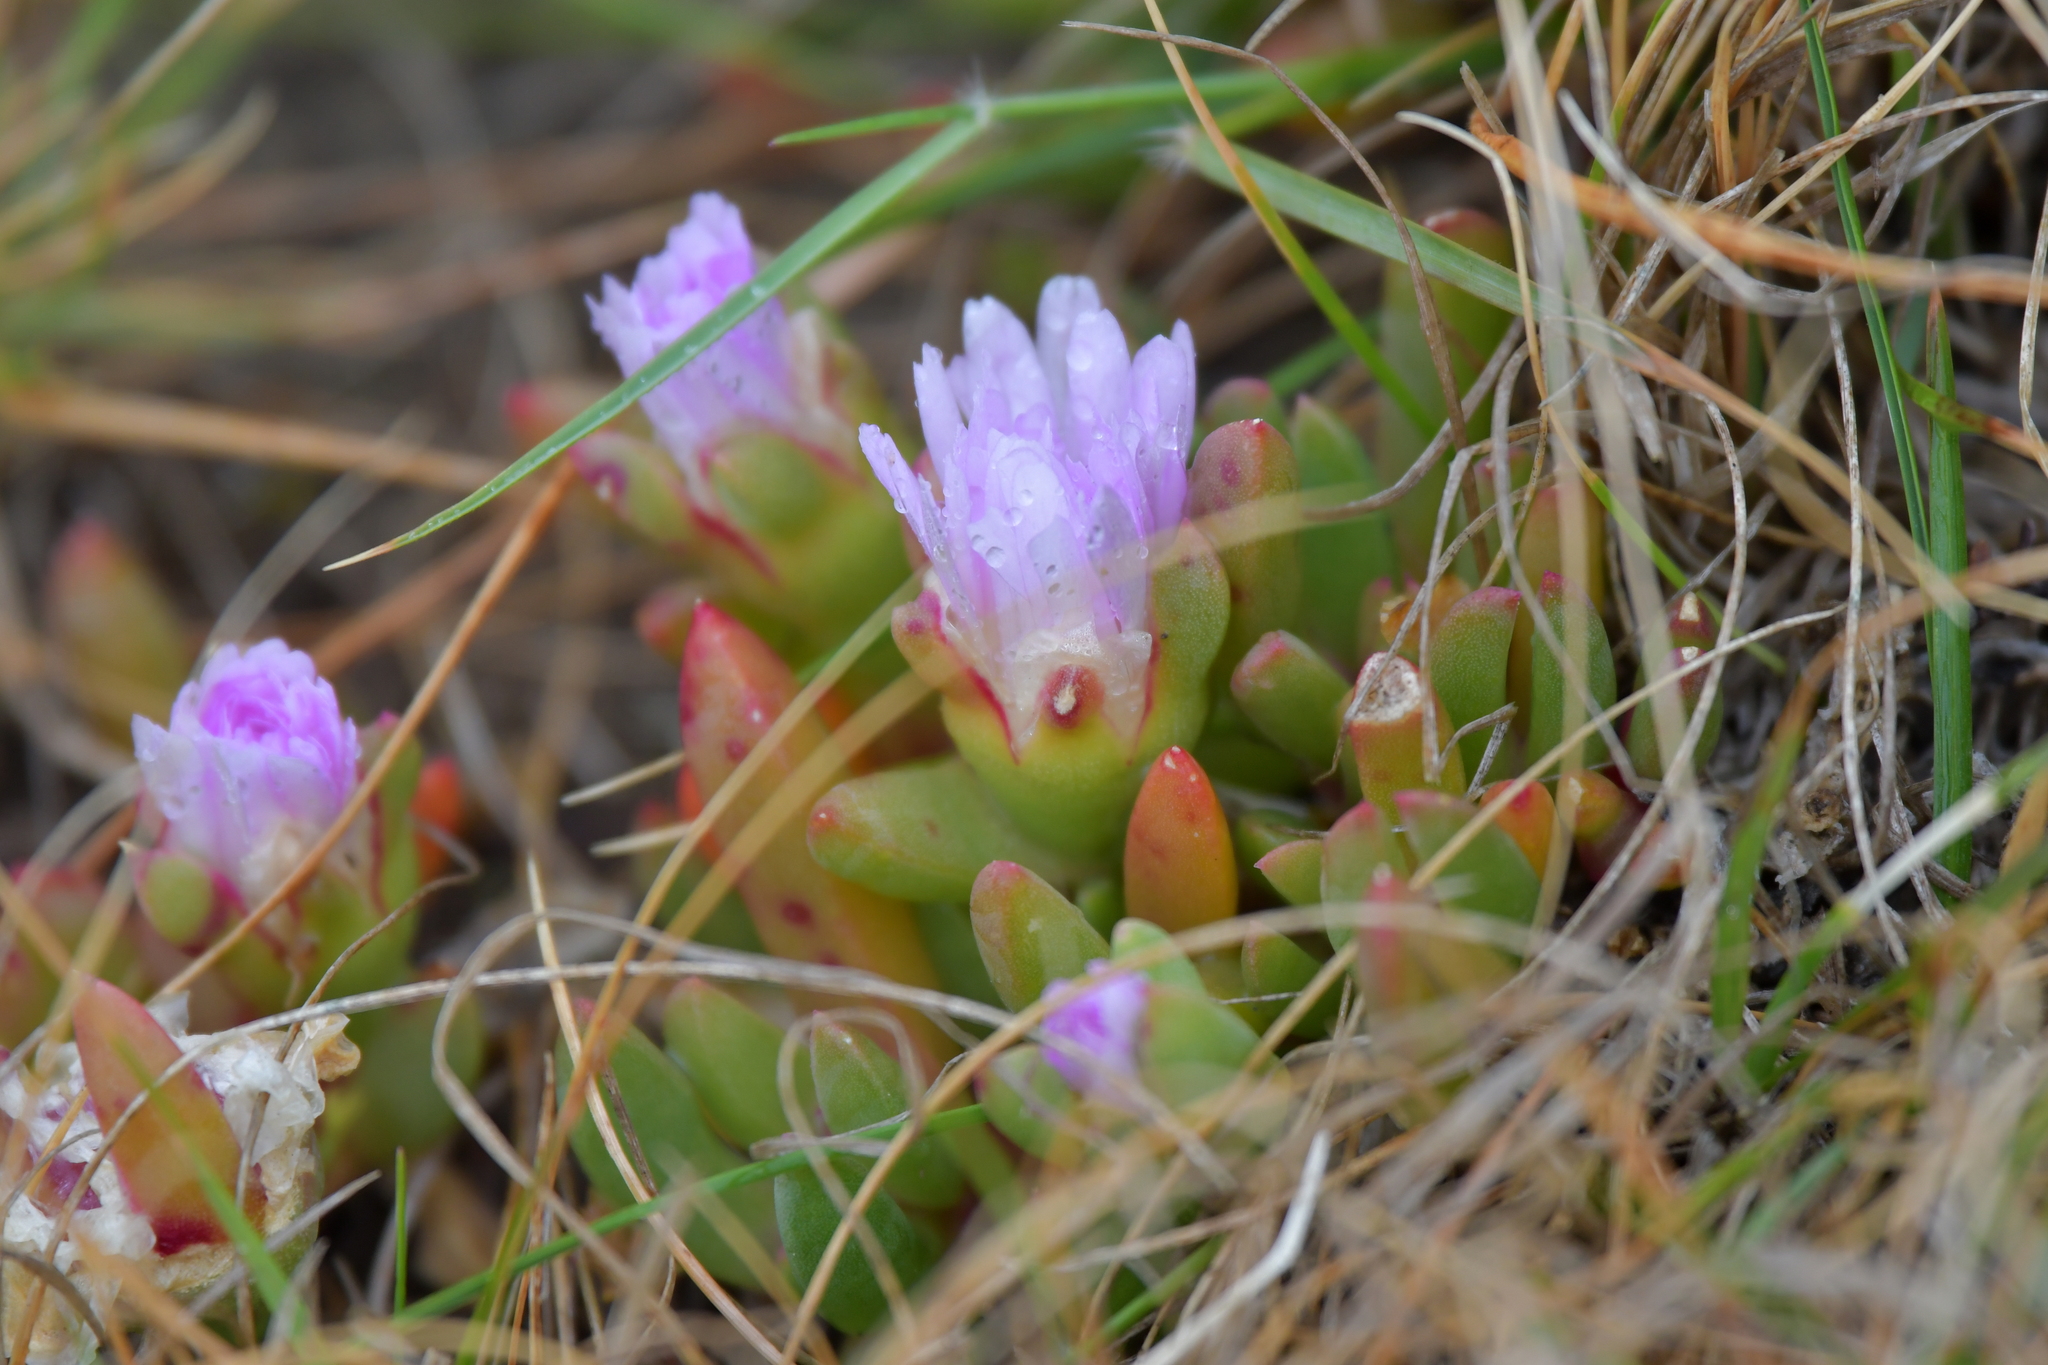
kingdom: Plantae
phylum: Tracheophyta
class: Magnoliopsida
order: Caryophyllales
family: Aizoaceae
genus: Disphyma
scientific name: Disphyma australe
